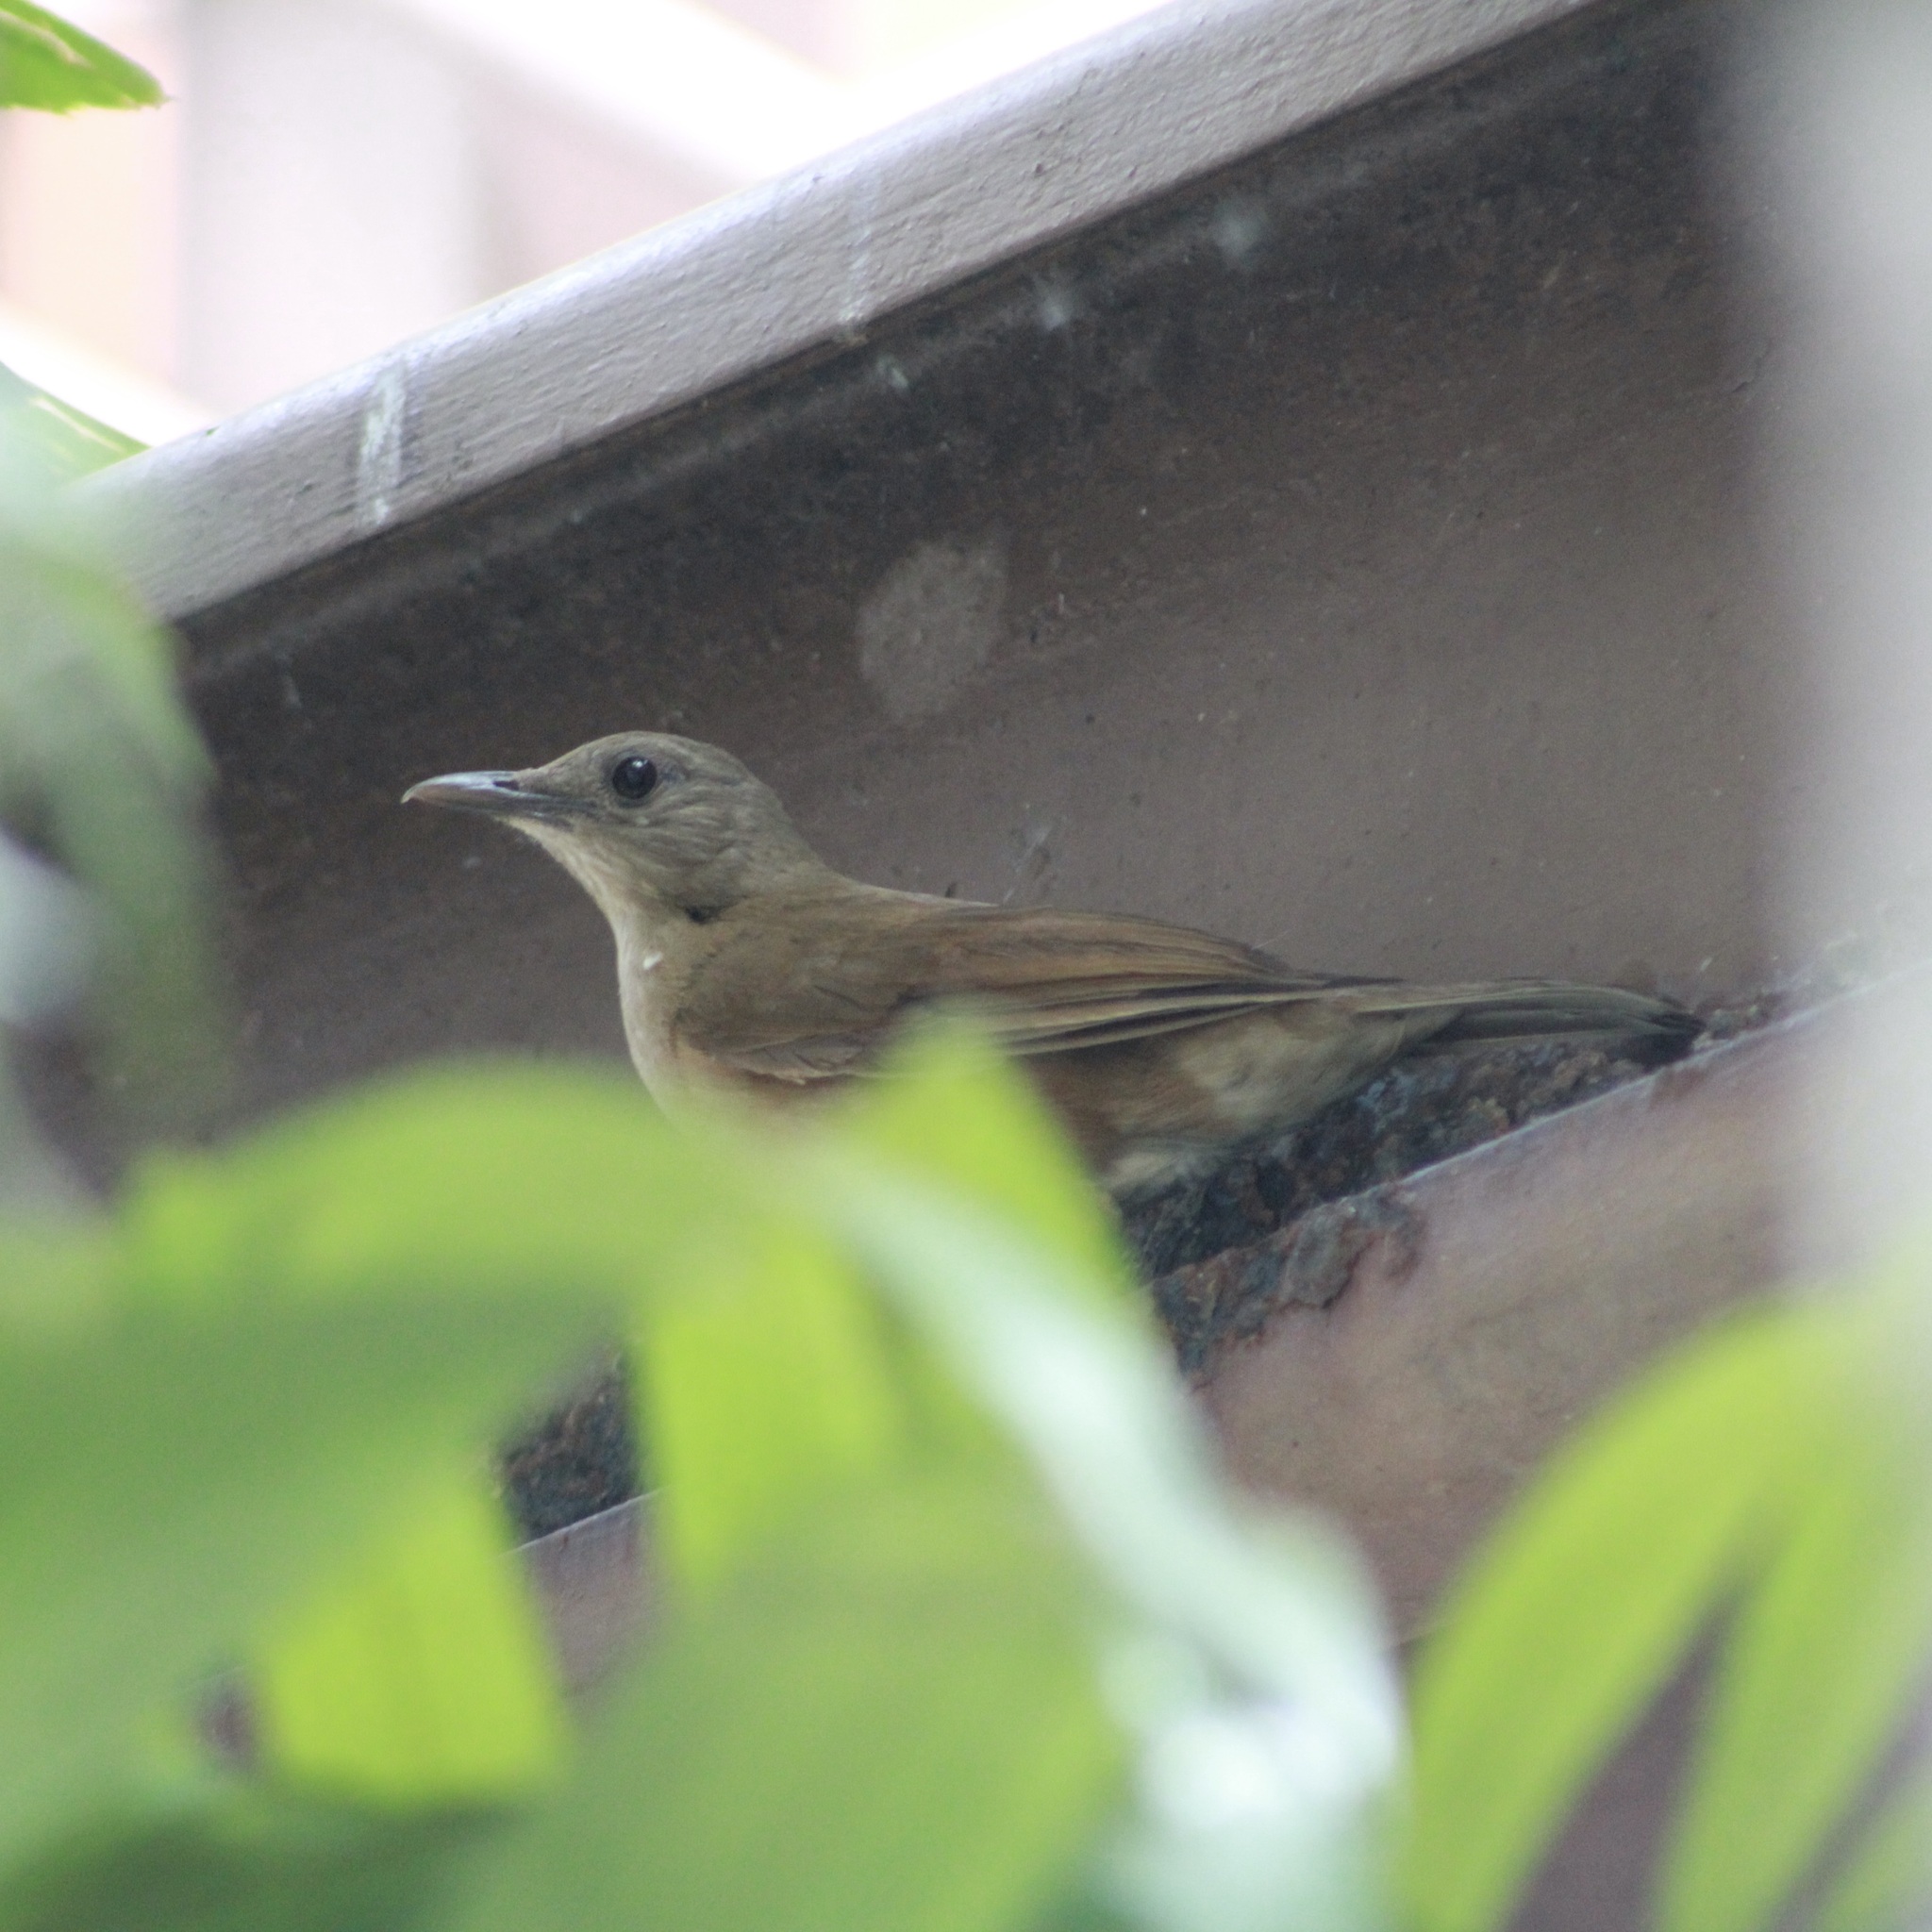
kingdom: Animalia
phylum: Chordata
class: Aves
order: Passeriformes
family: Turdidae
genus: Turdus
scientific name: Turdus fumigatus
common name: Cocoa thrush
